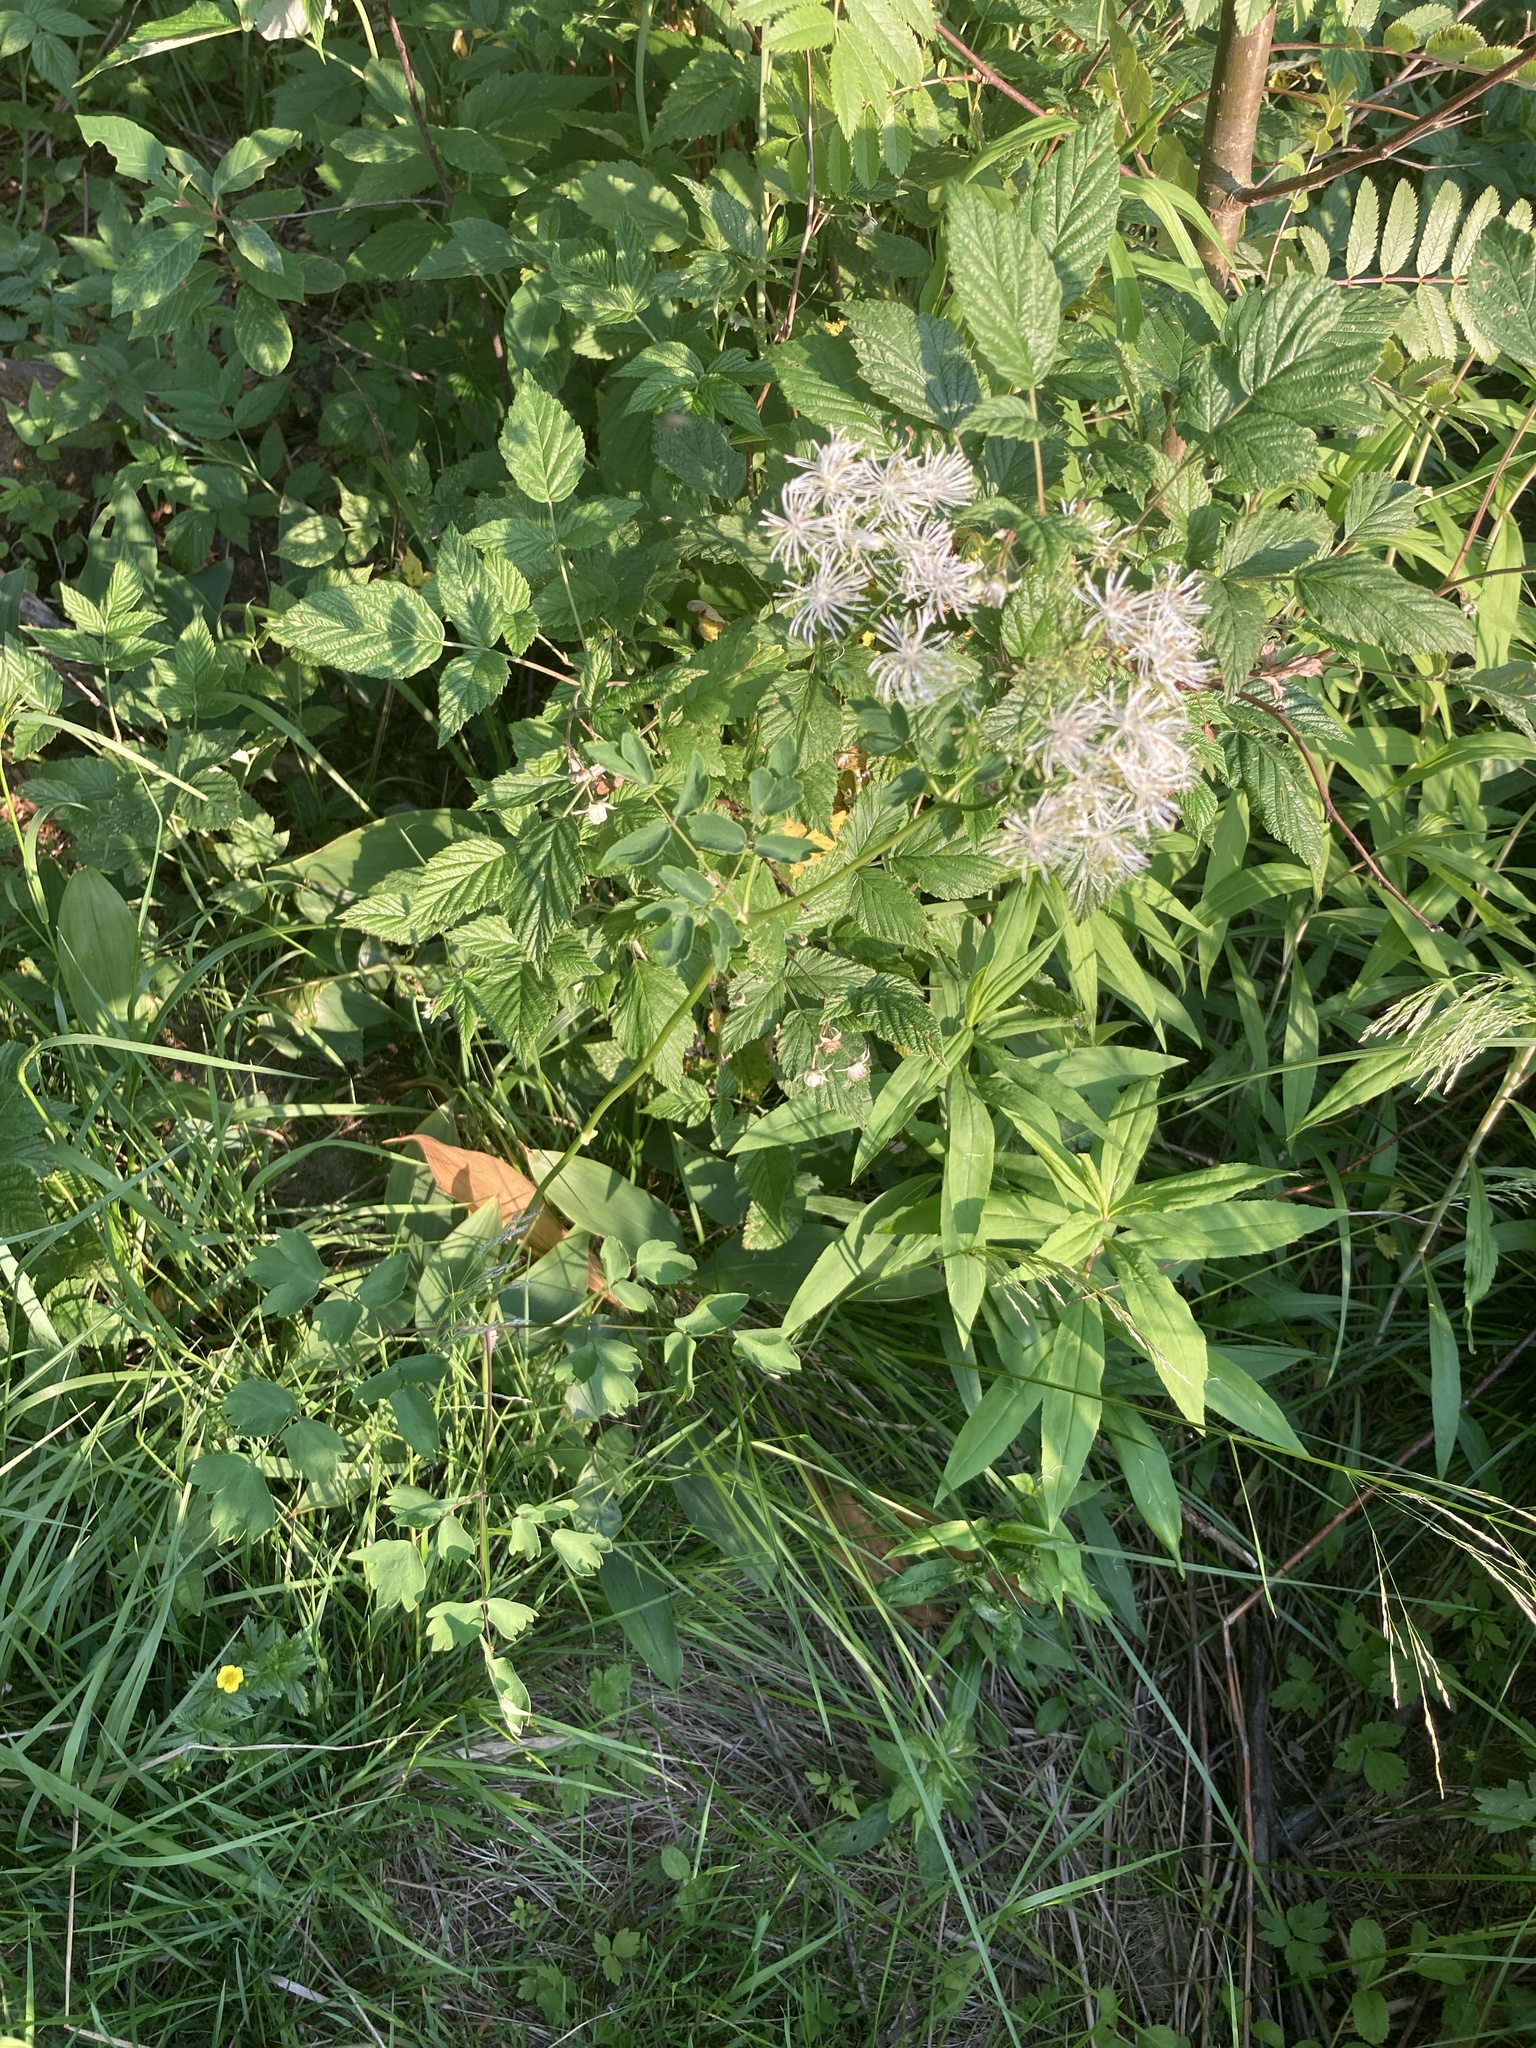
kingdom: Plantae
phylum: Tracheophyta
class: Magnoliopsida
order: Ranunculales
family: Ranunculaceae
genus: Thalictrum
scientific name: Thalictrum aquilegiifolium
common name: French meadow-rue
